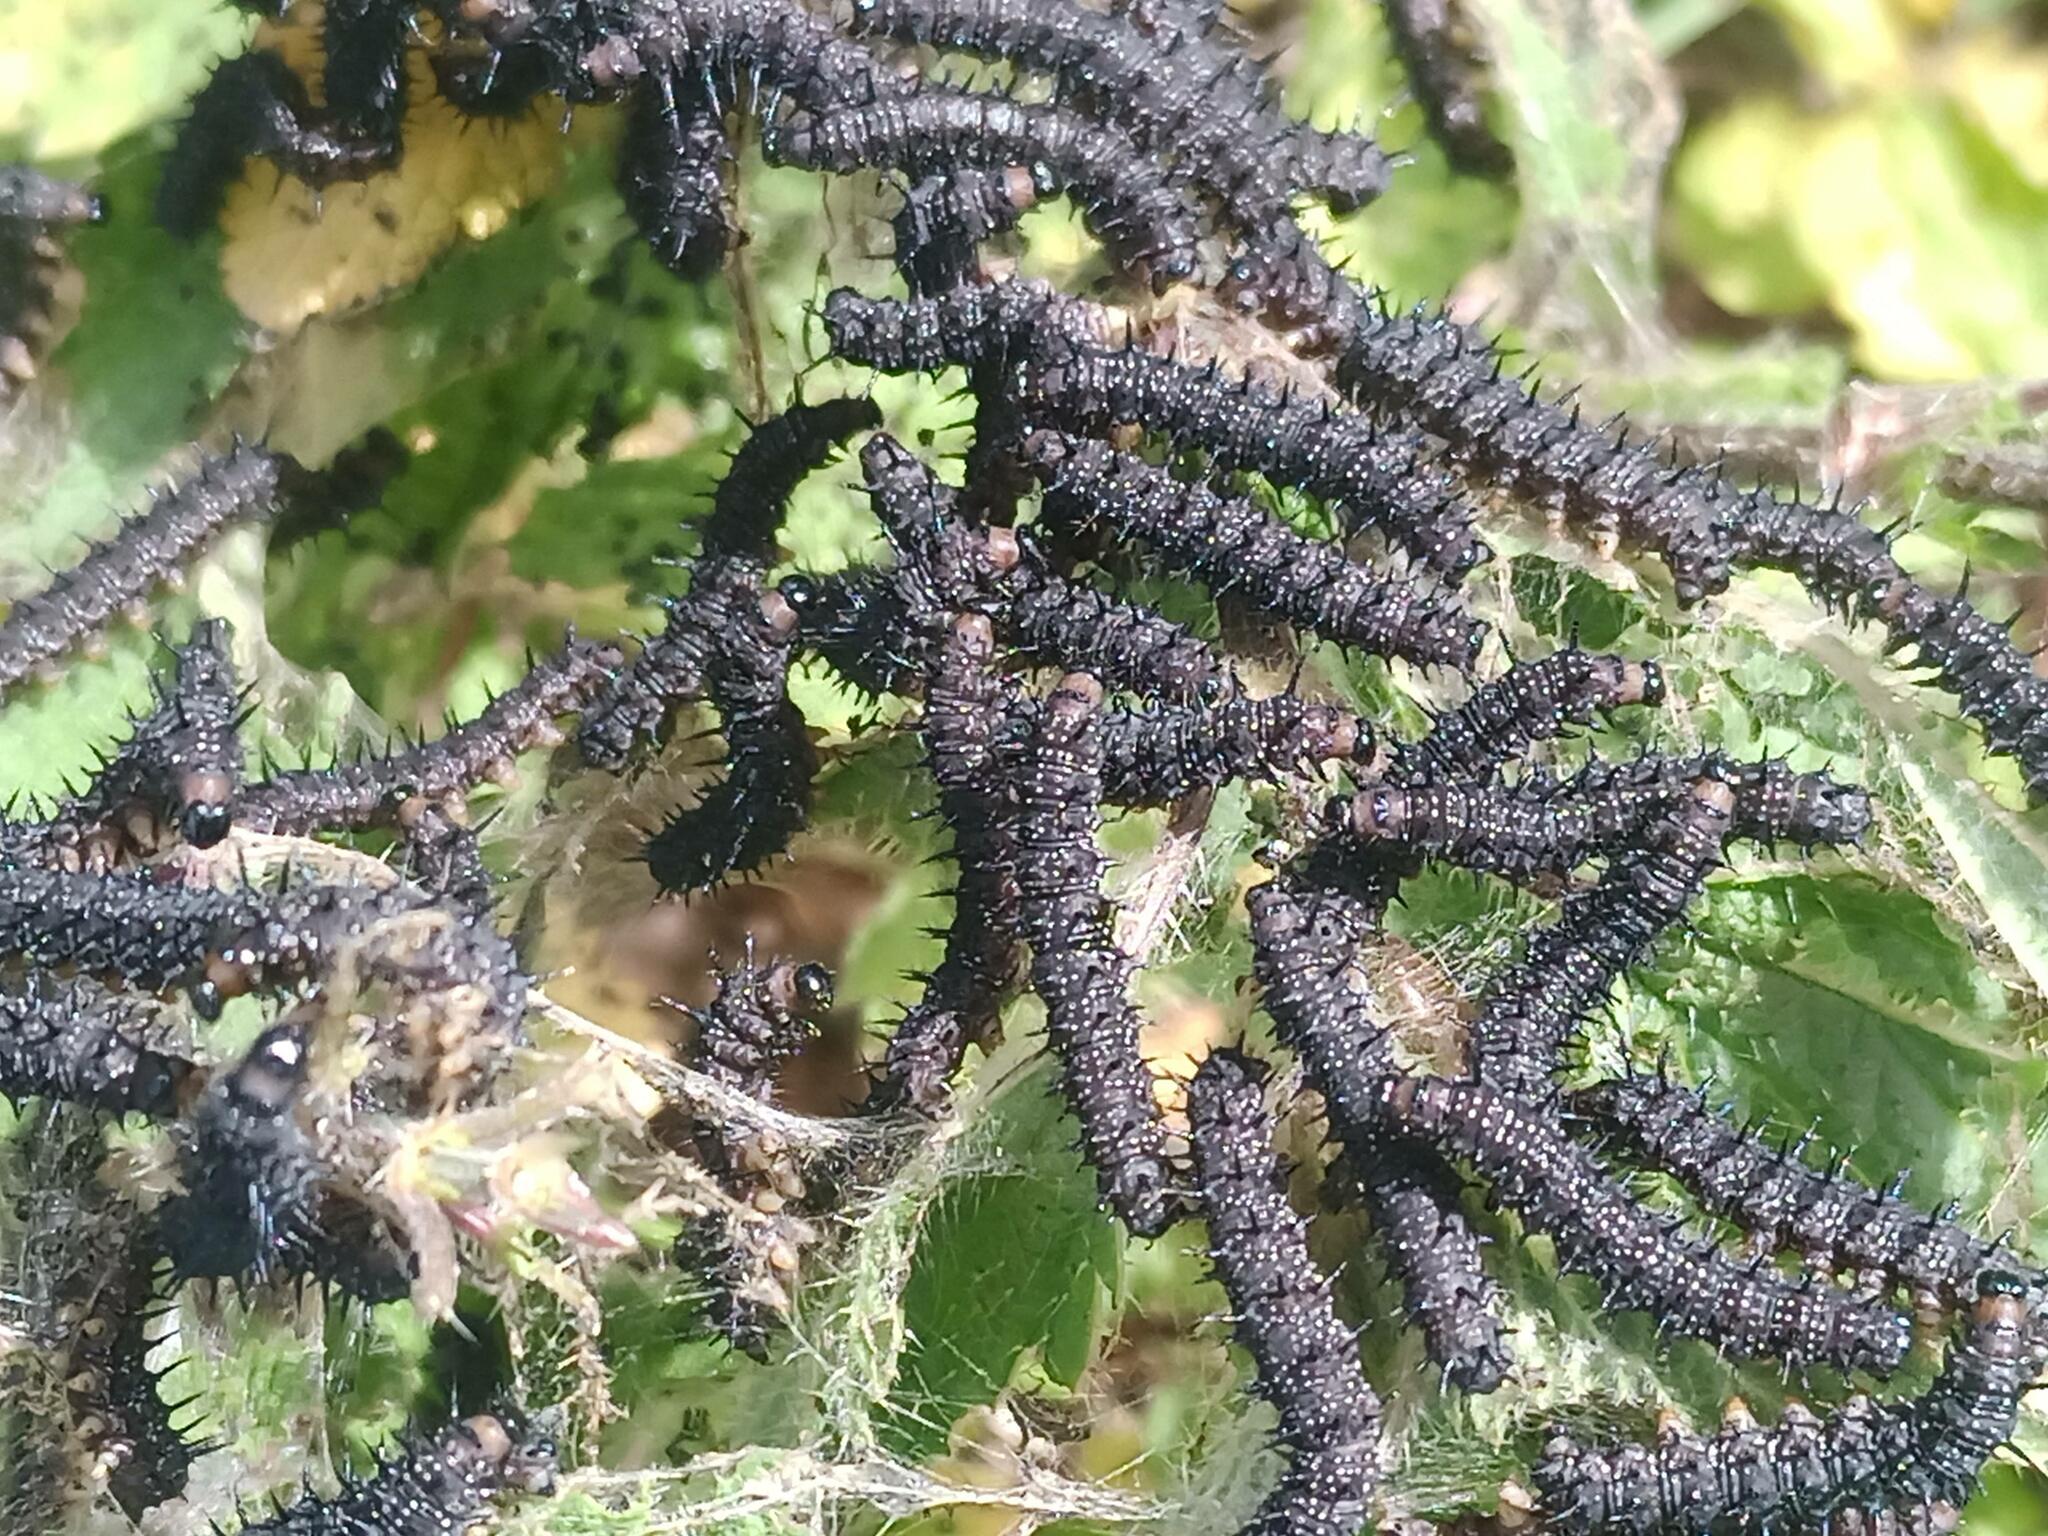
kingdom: Animalia
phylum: Arthropoda
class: Insecta
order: Lepidoptera
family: Nymphalidae
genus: Aglais
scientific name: Aglais io
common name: Peacock
